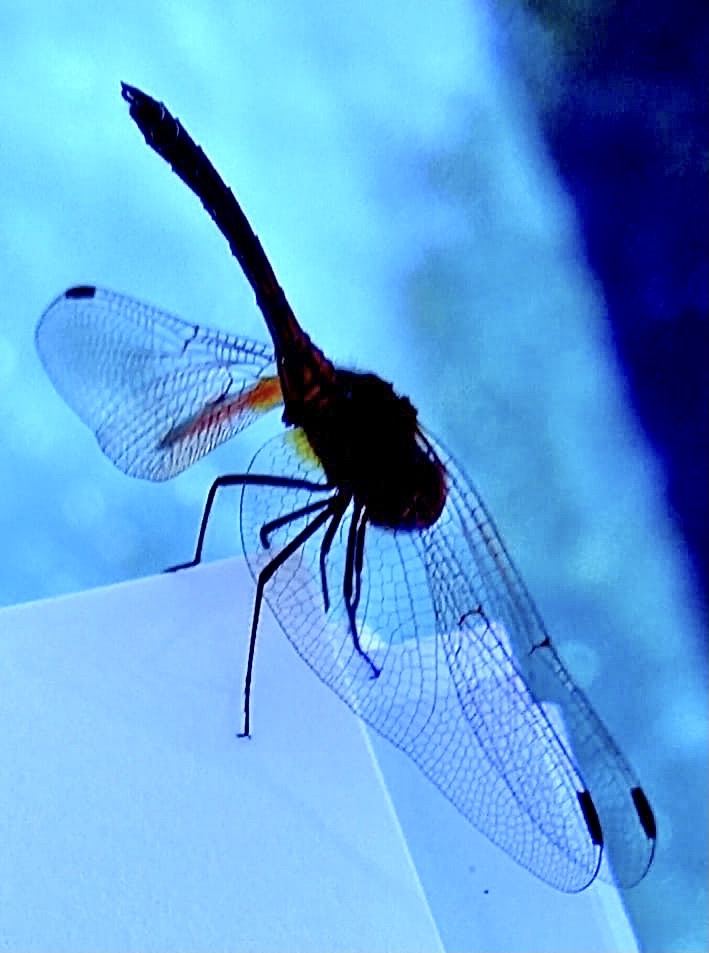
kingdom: Animalia
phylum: Arthropoda
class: Insecta
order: Odonata
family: Libellulidae
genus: Trithemis
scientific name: Trithemis arteriosa
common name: Red-veined dropwing
